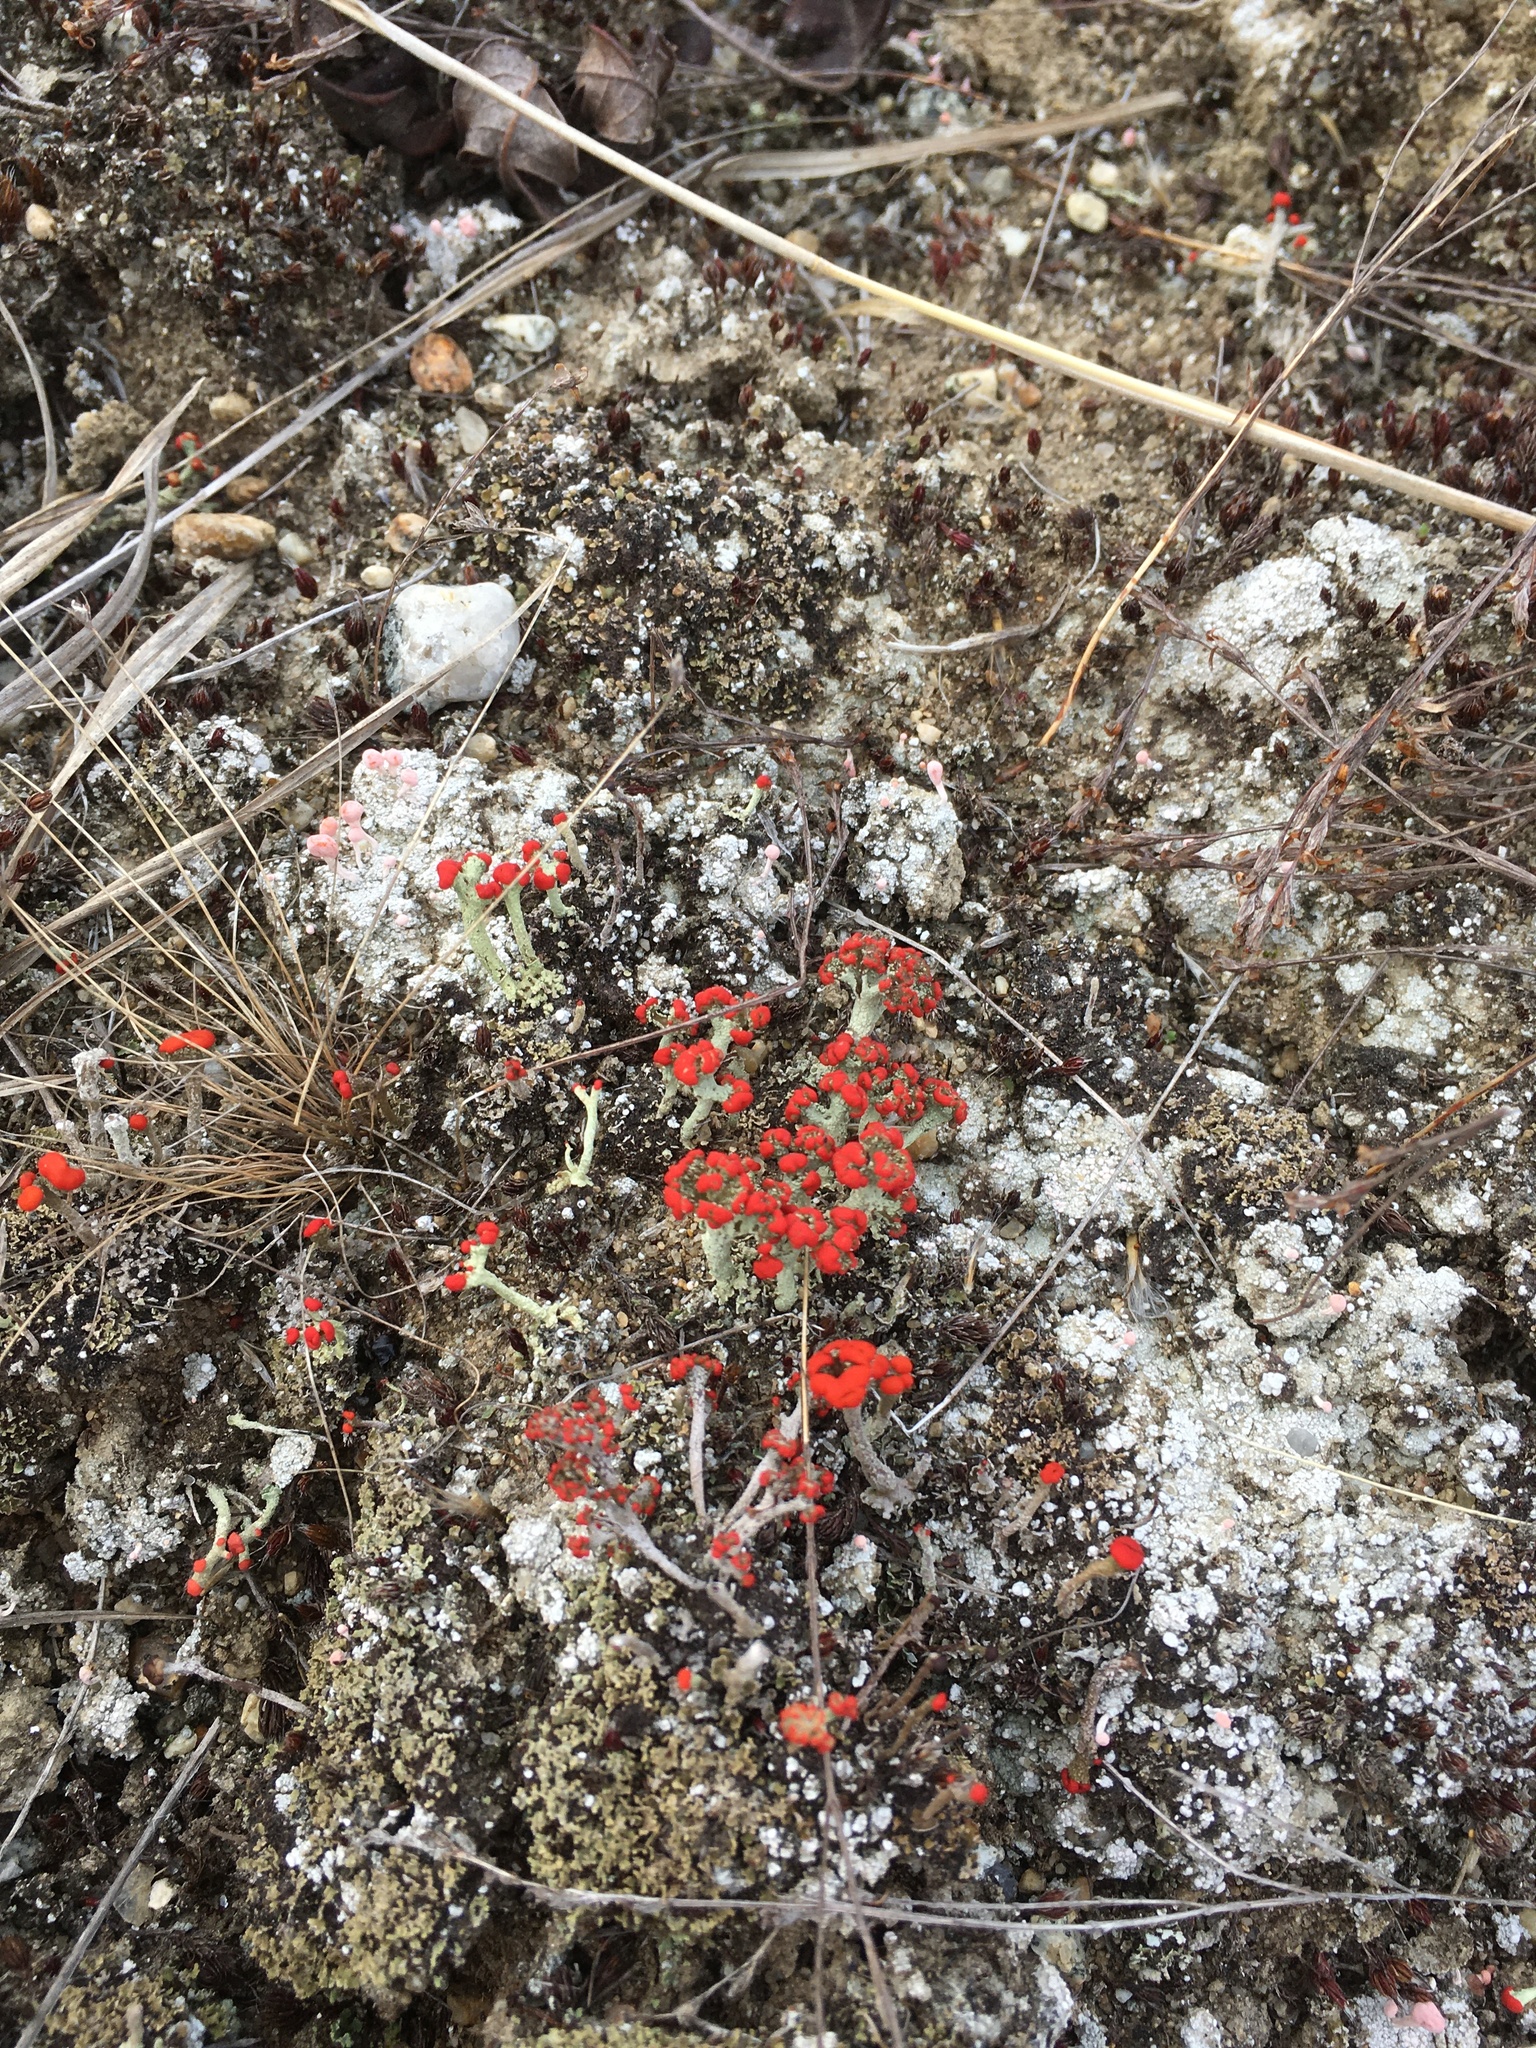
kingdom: Fungi
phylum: Ascomycota
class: Lecanoromycetes
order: Lecanorales
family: Cladoniaceae
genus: Cladonia
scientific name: Cladonia cristatella
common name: British soldier lichen
